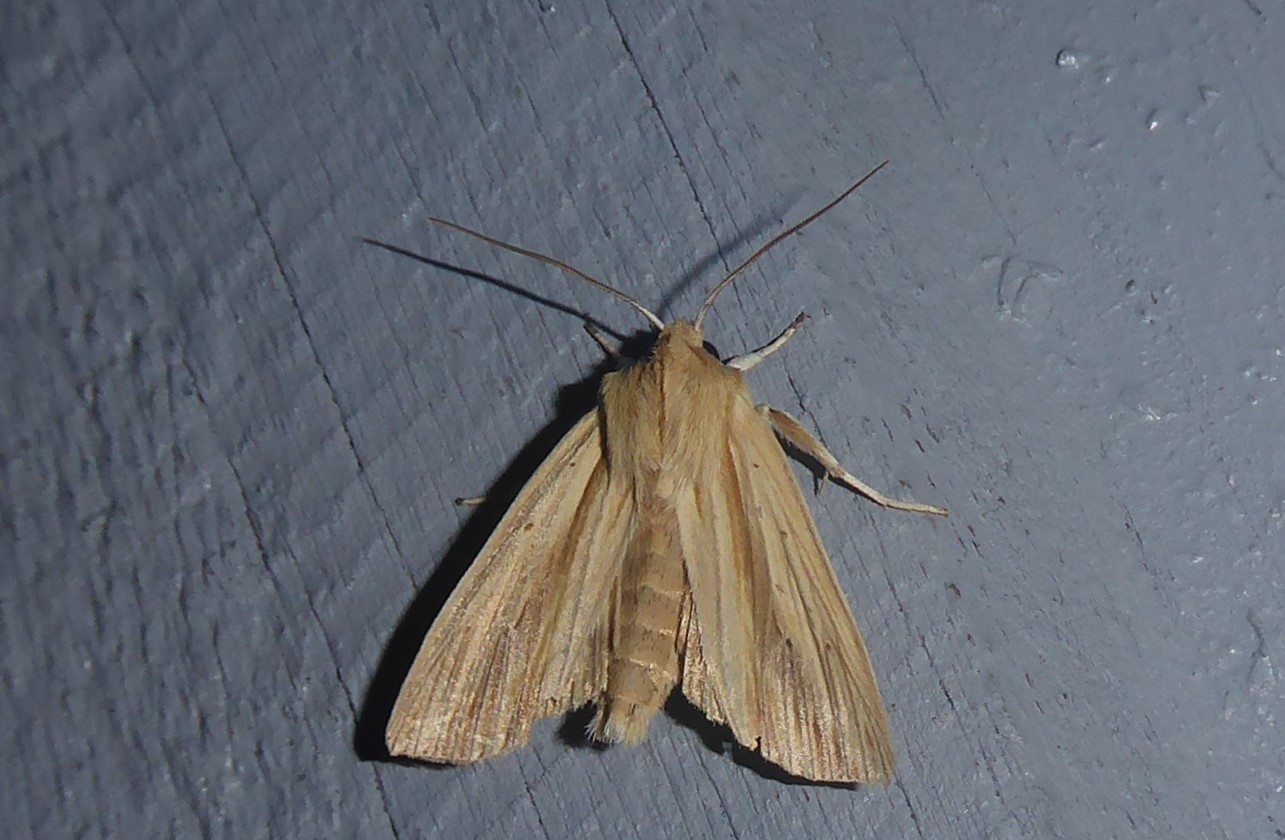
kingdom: Animalia
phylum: Arthropoda
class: Insecta
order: Lepidoptera
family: Noctuidae
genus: Ichneutica
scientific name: Ichneutica semivittata
